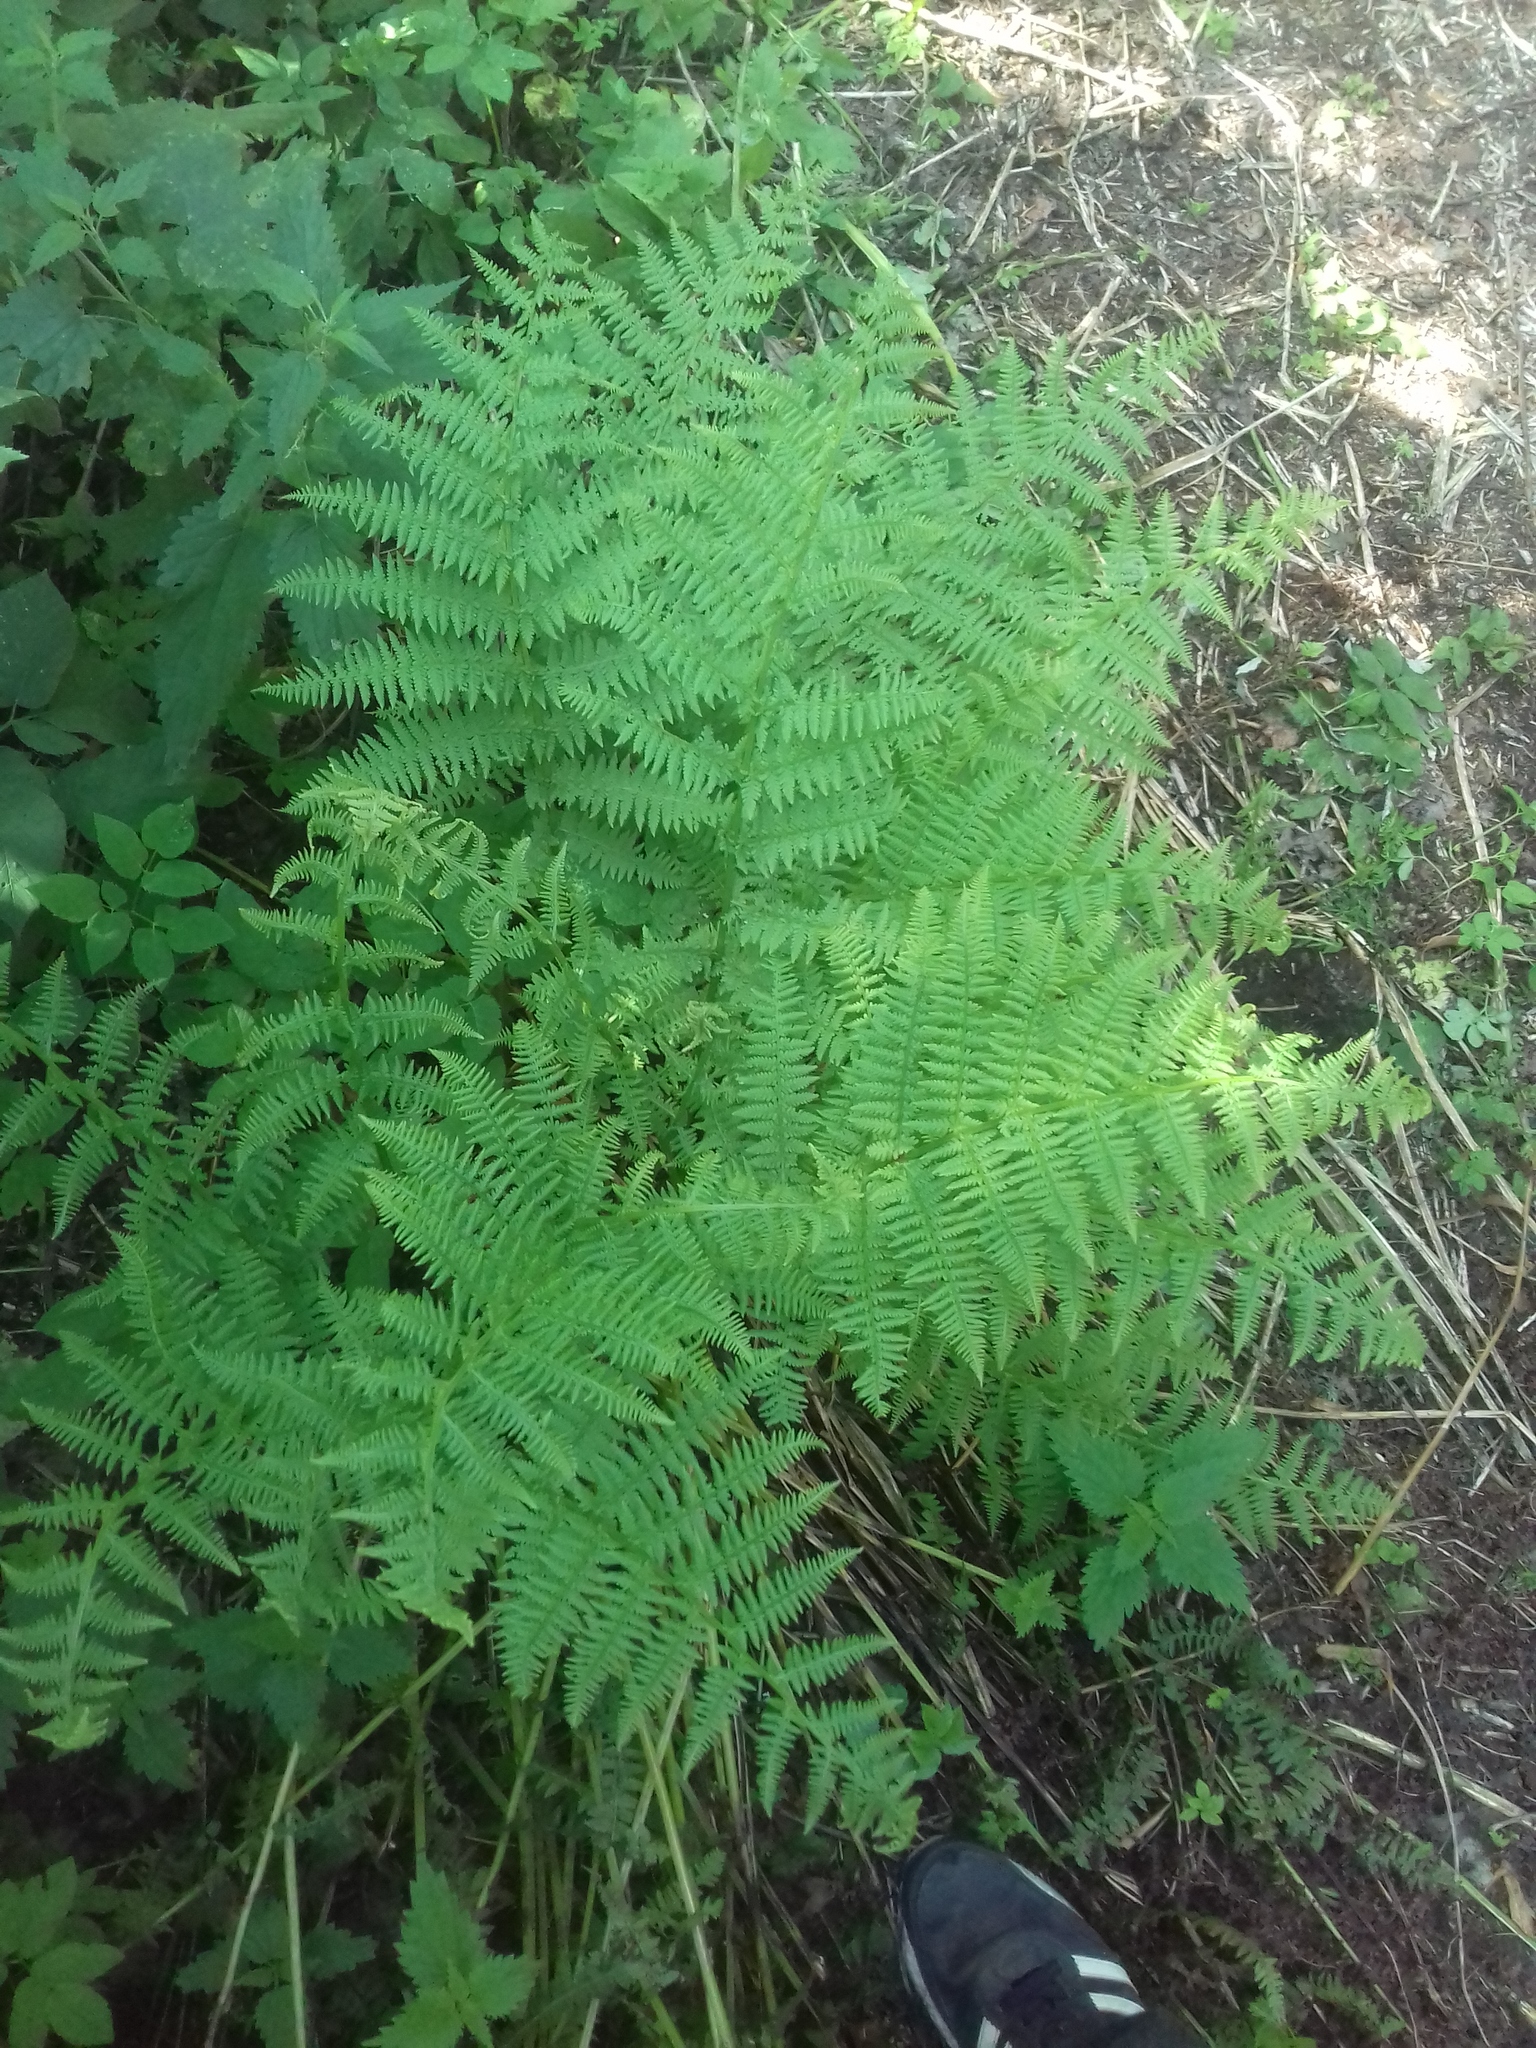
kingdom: Plantae
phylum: Tracheophyta
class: Polypodiopsida
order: Polypodiales
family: Athyriaceae
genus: Athyrium
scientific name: Athyrium filix-femina
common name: Lady fern
